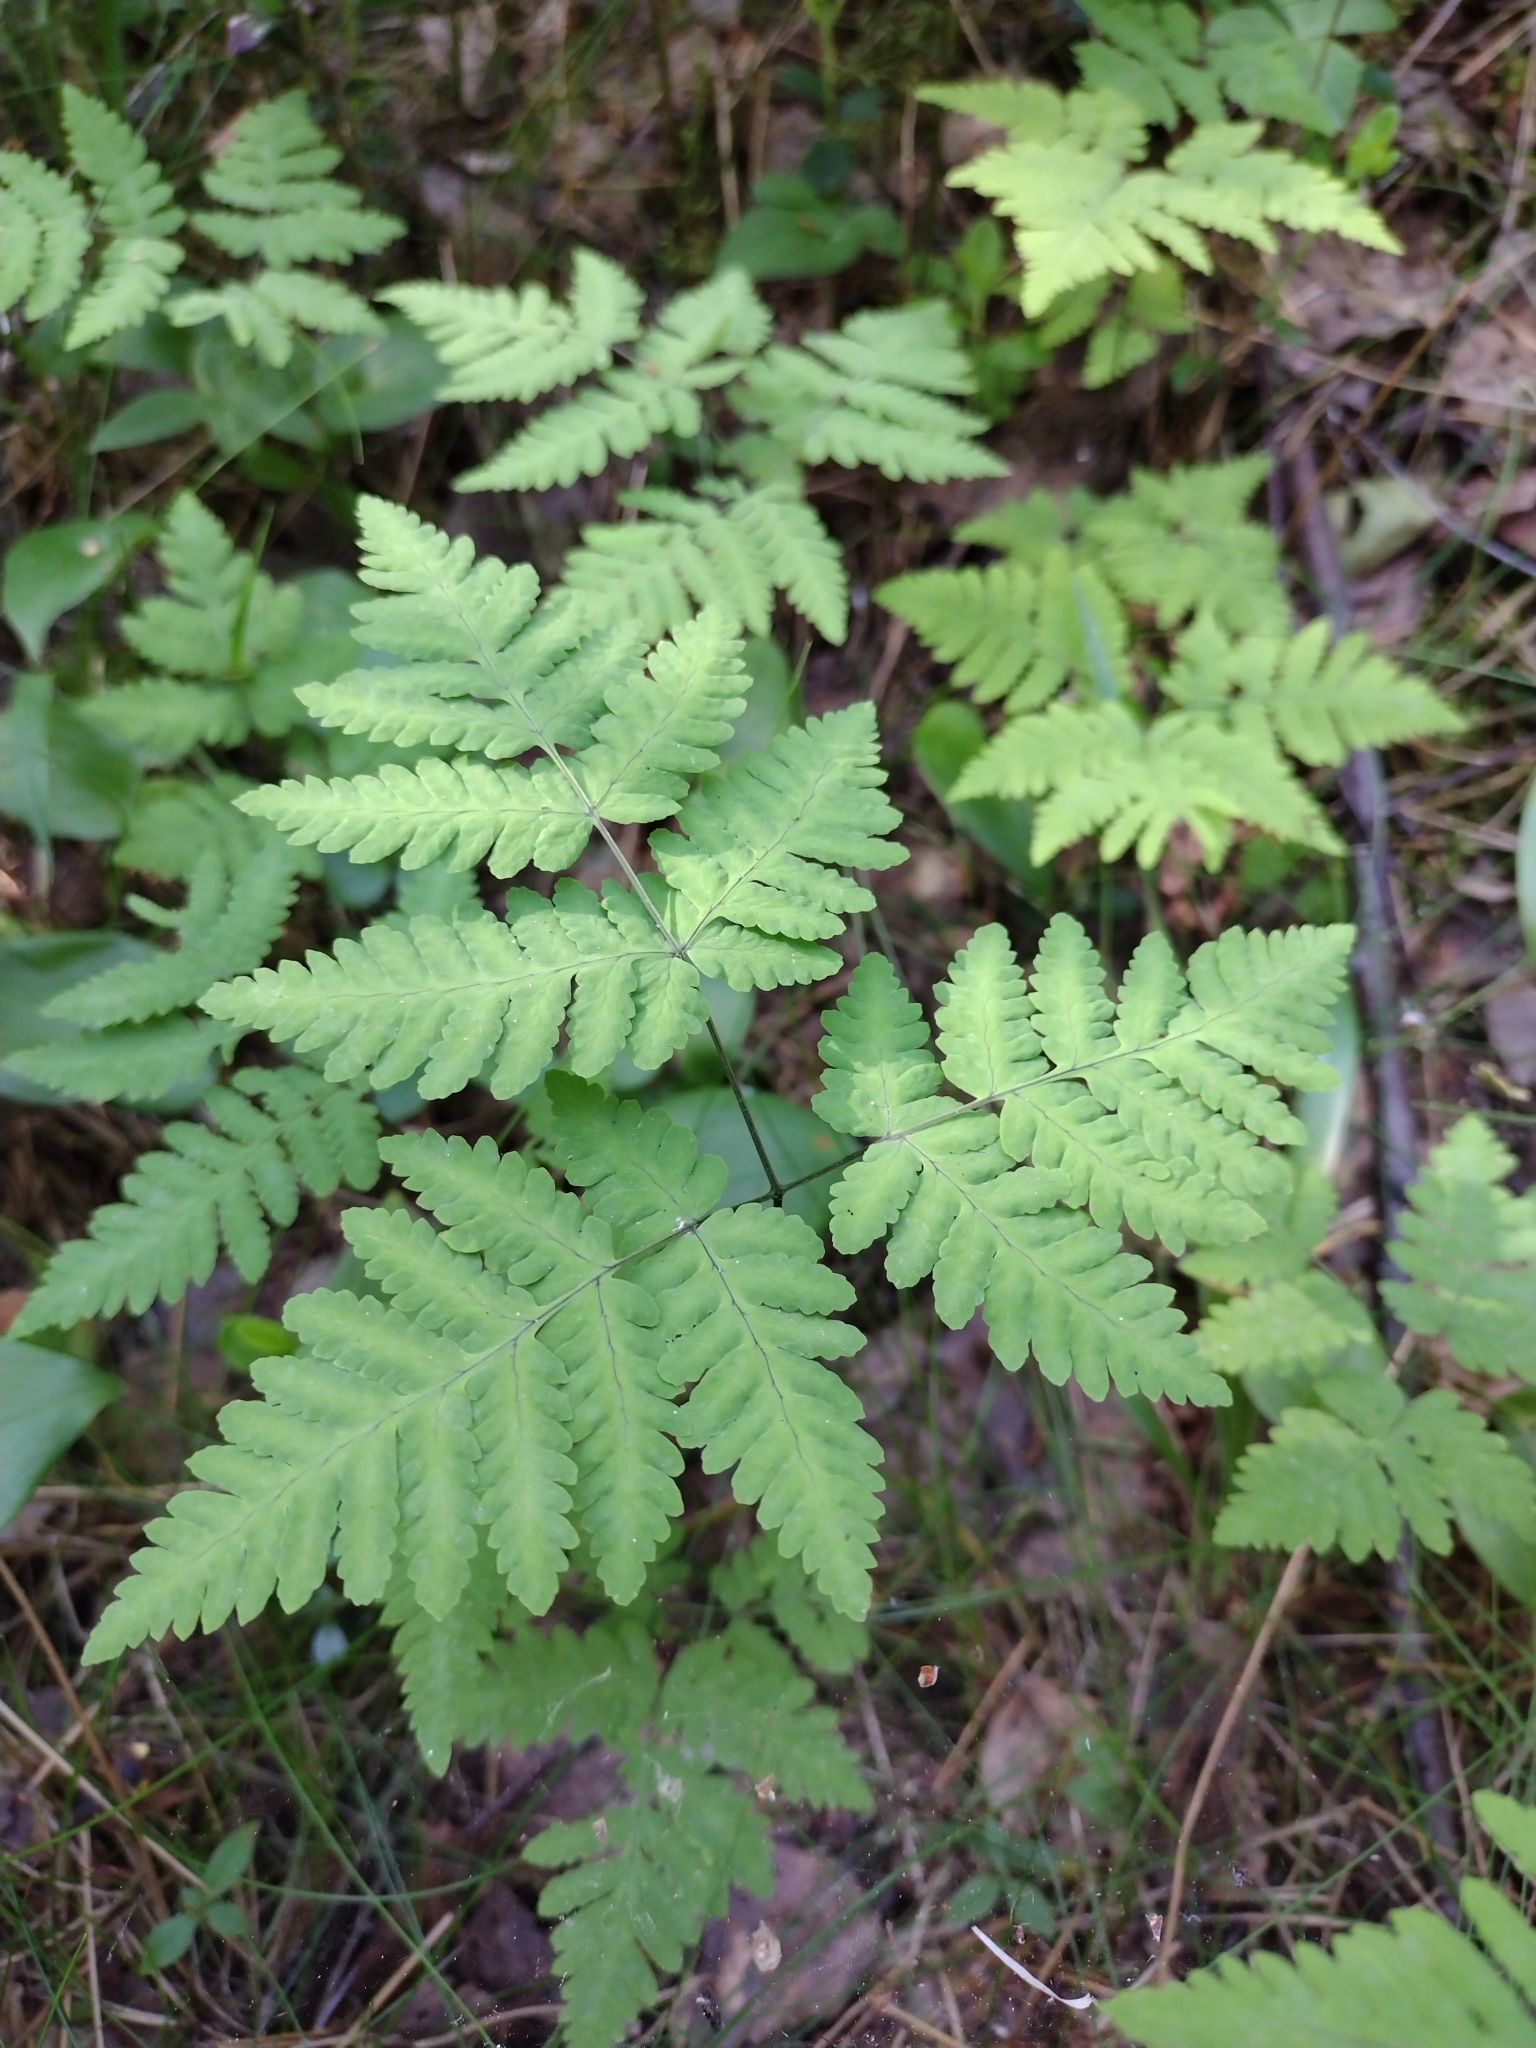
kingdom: Plantae
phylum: Tracheophyta
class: Polypodiopsida
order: Polypodiales
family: Cystopteridaceae
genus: Gymnocarpium
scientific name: Gymnocarpium dryopteris
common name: Oak fern
